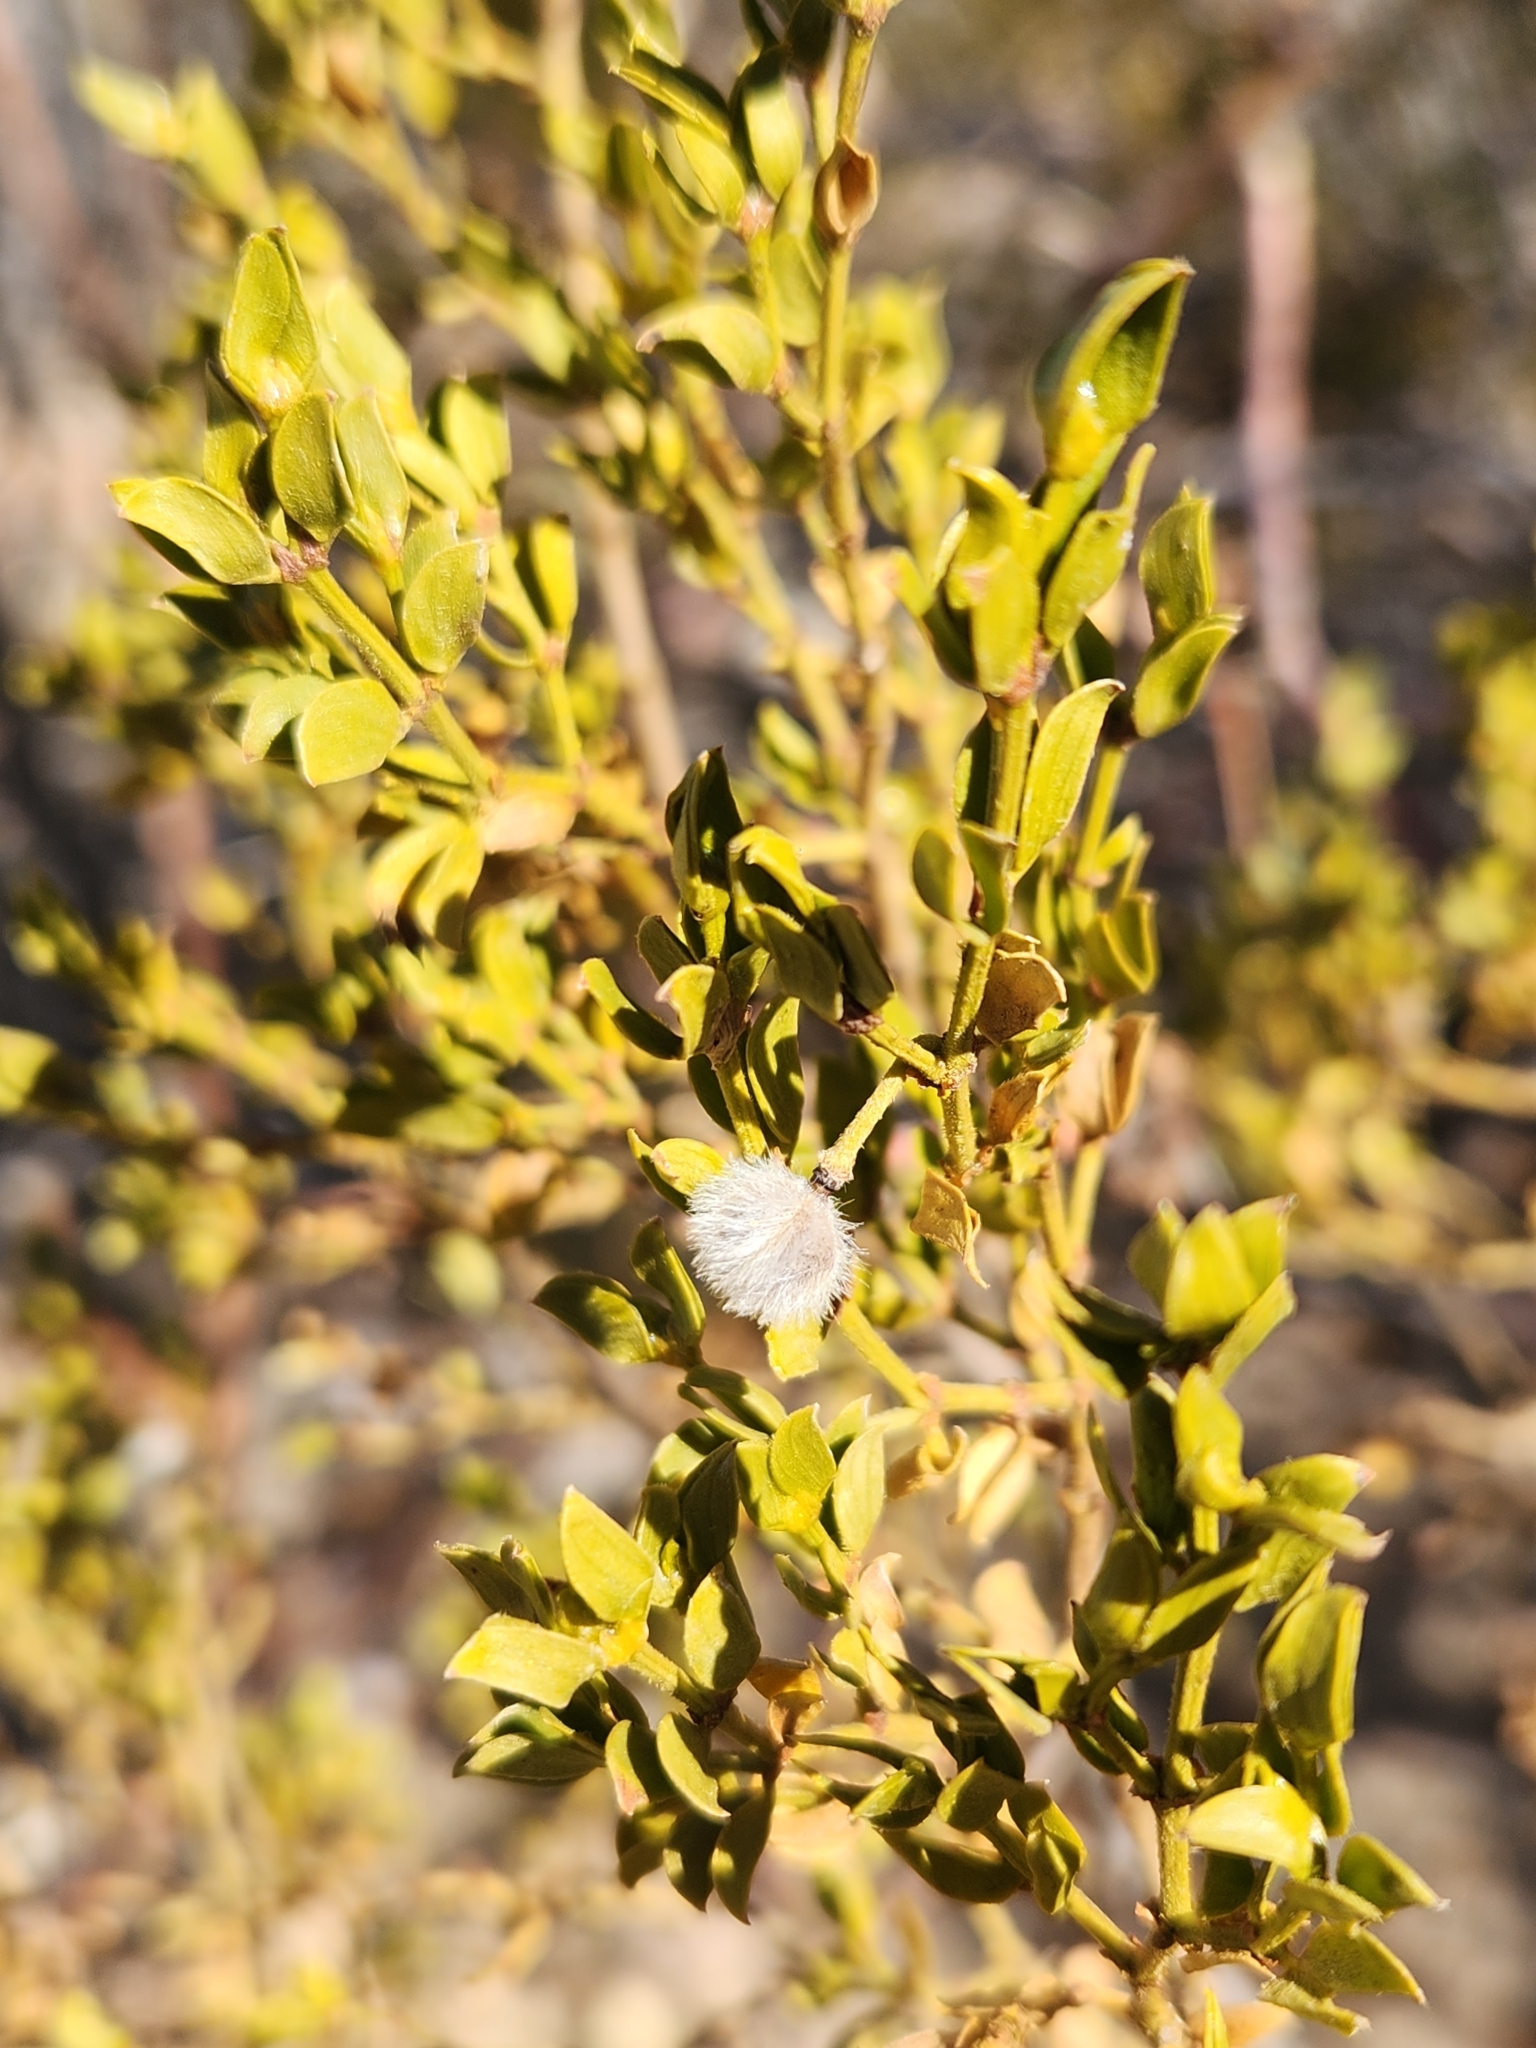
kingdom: Plantae
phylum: Tracheophyta
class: Magnoliopsida
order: Zygophyllales
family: Zygophyllaceae
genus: Larrea
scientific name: Larrea tridentata
